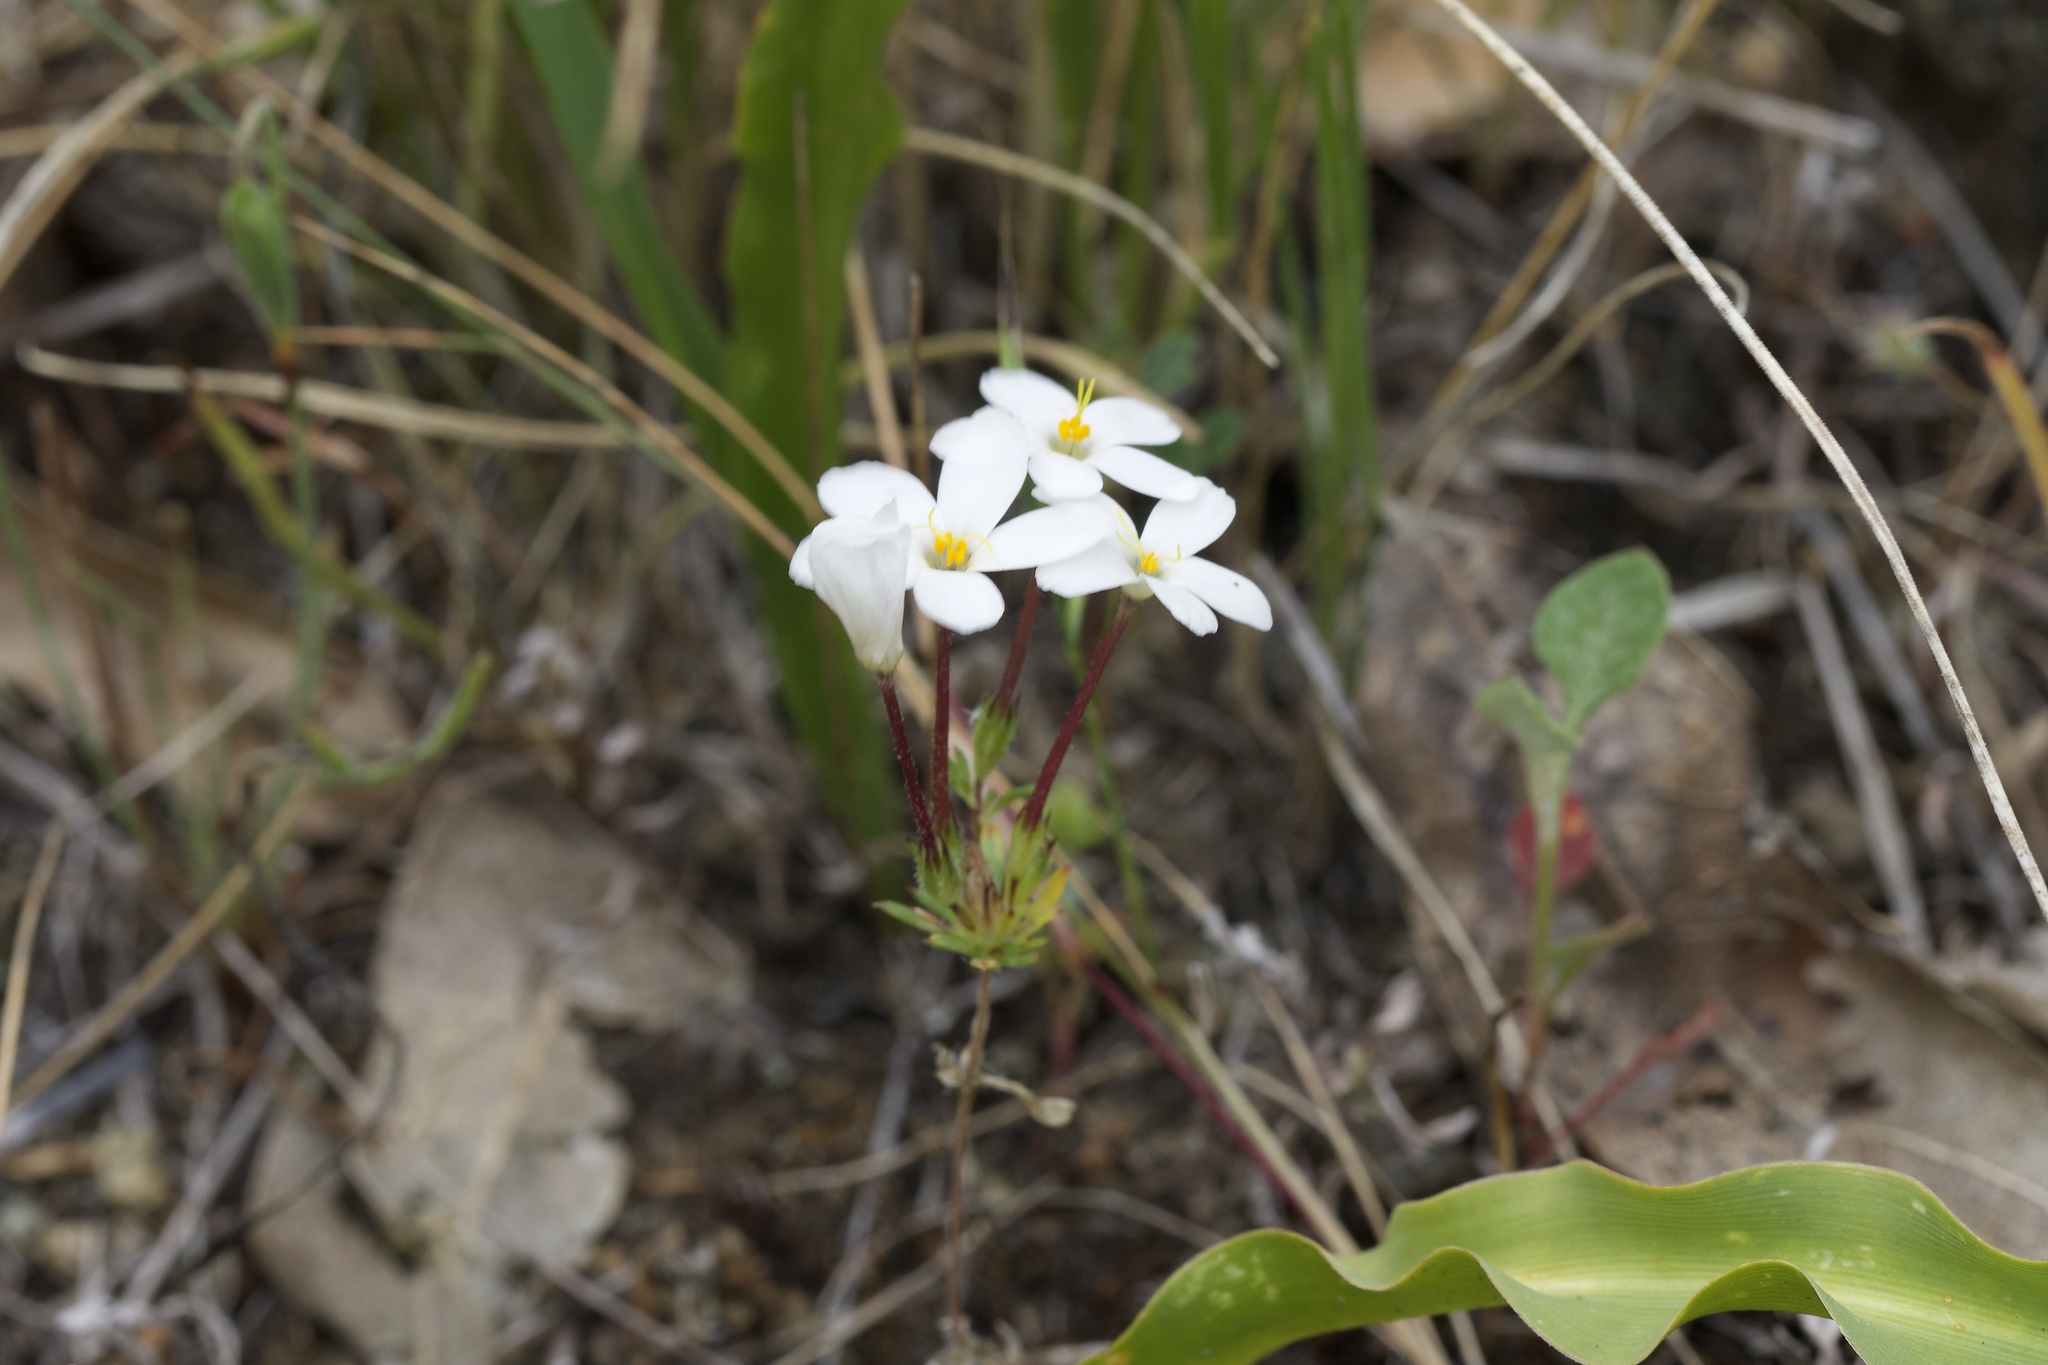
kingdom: Plantae
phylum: Tracheophyta
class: Magnoliopsida
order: Ericales
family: Polemoniaceae
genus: Leptosiphon
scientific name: Leptosiphon androsaceus
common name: False babystars
